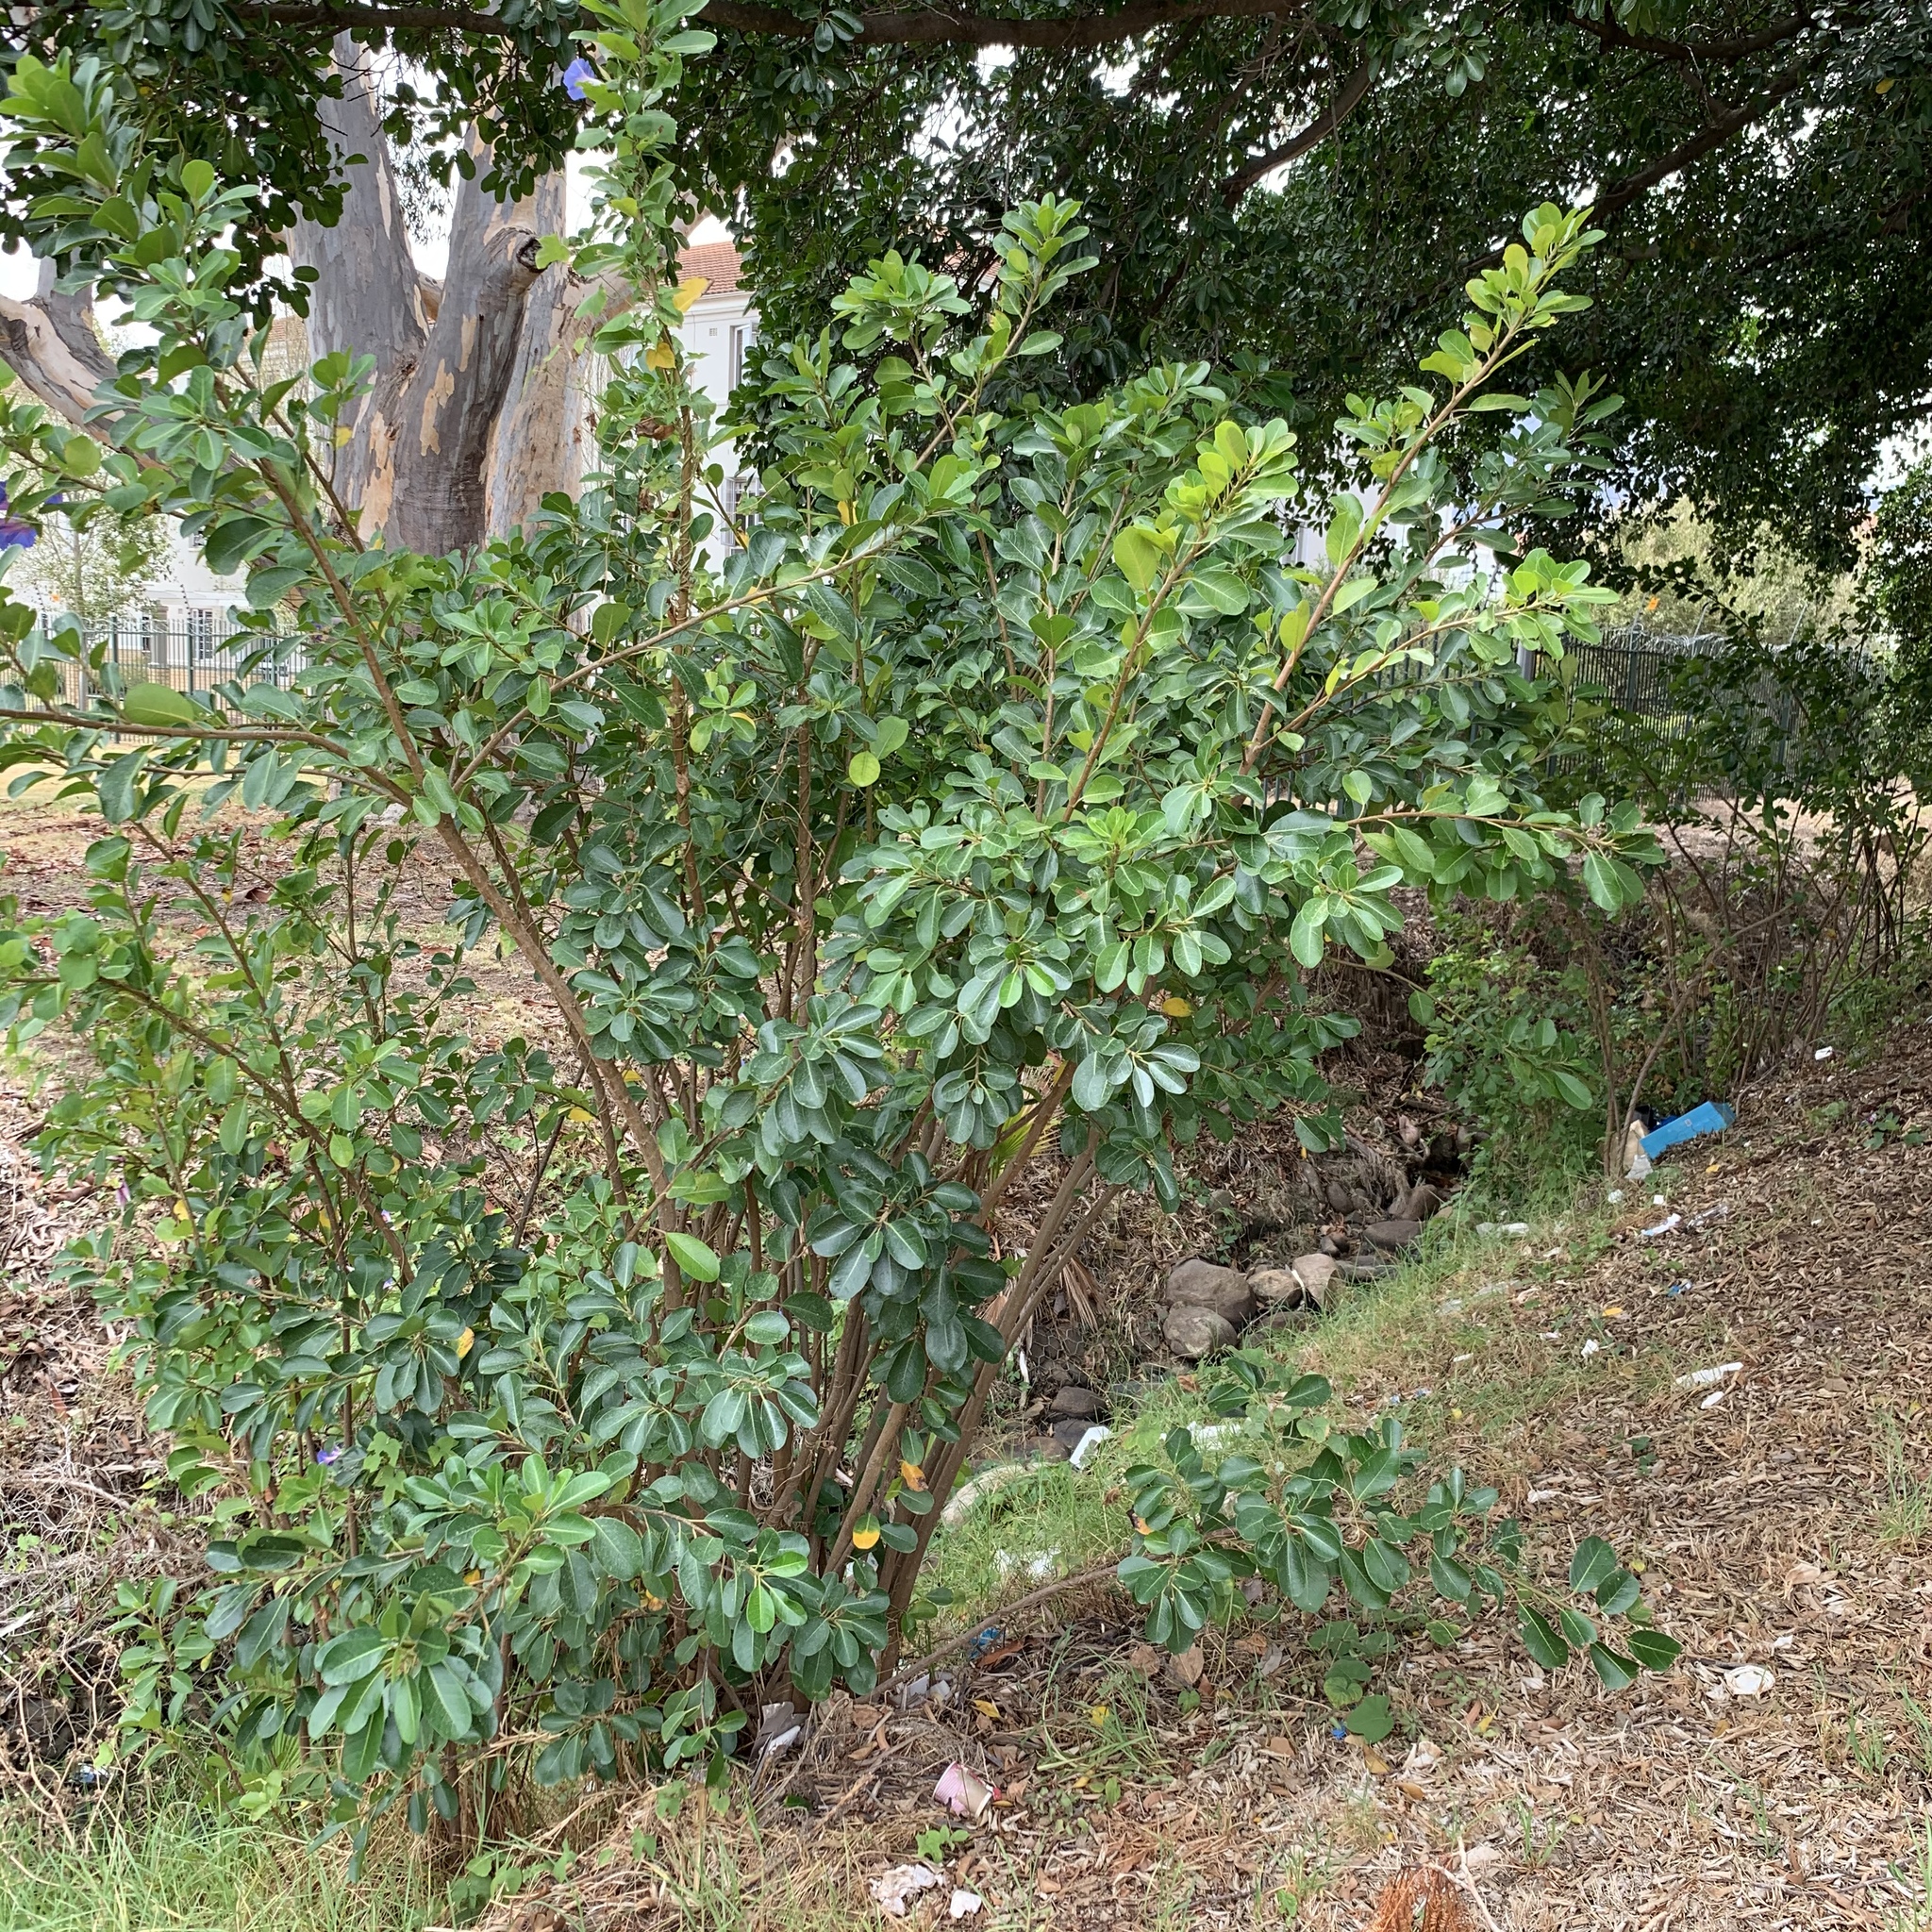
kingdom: Plantae
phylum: Tracheophyta
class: Magnoliopsida
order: Rosales
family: Moraceae
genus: Ficus
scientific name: Ficus thonningii
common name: Fig
